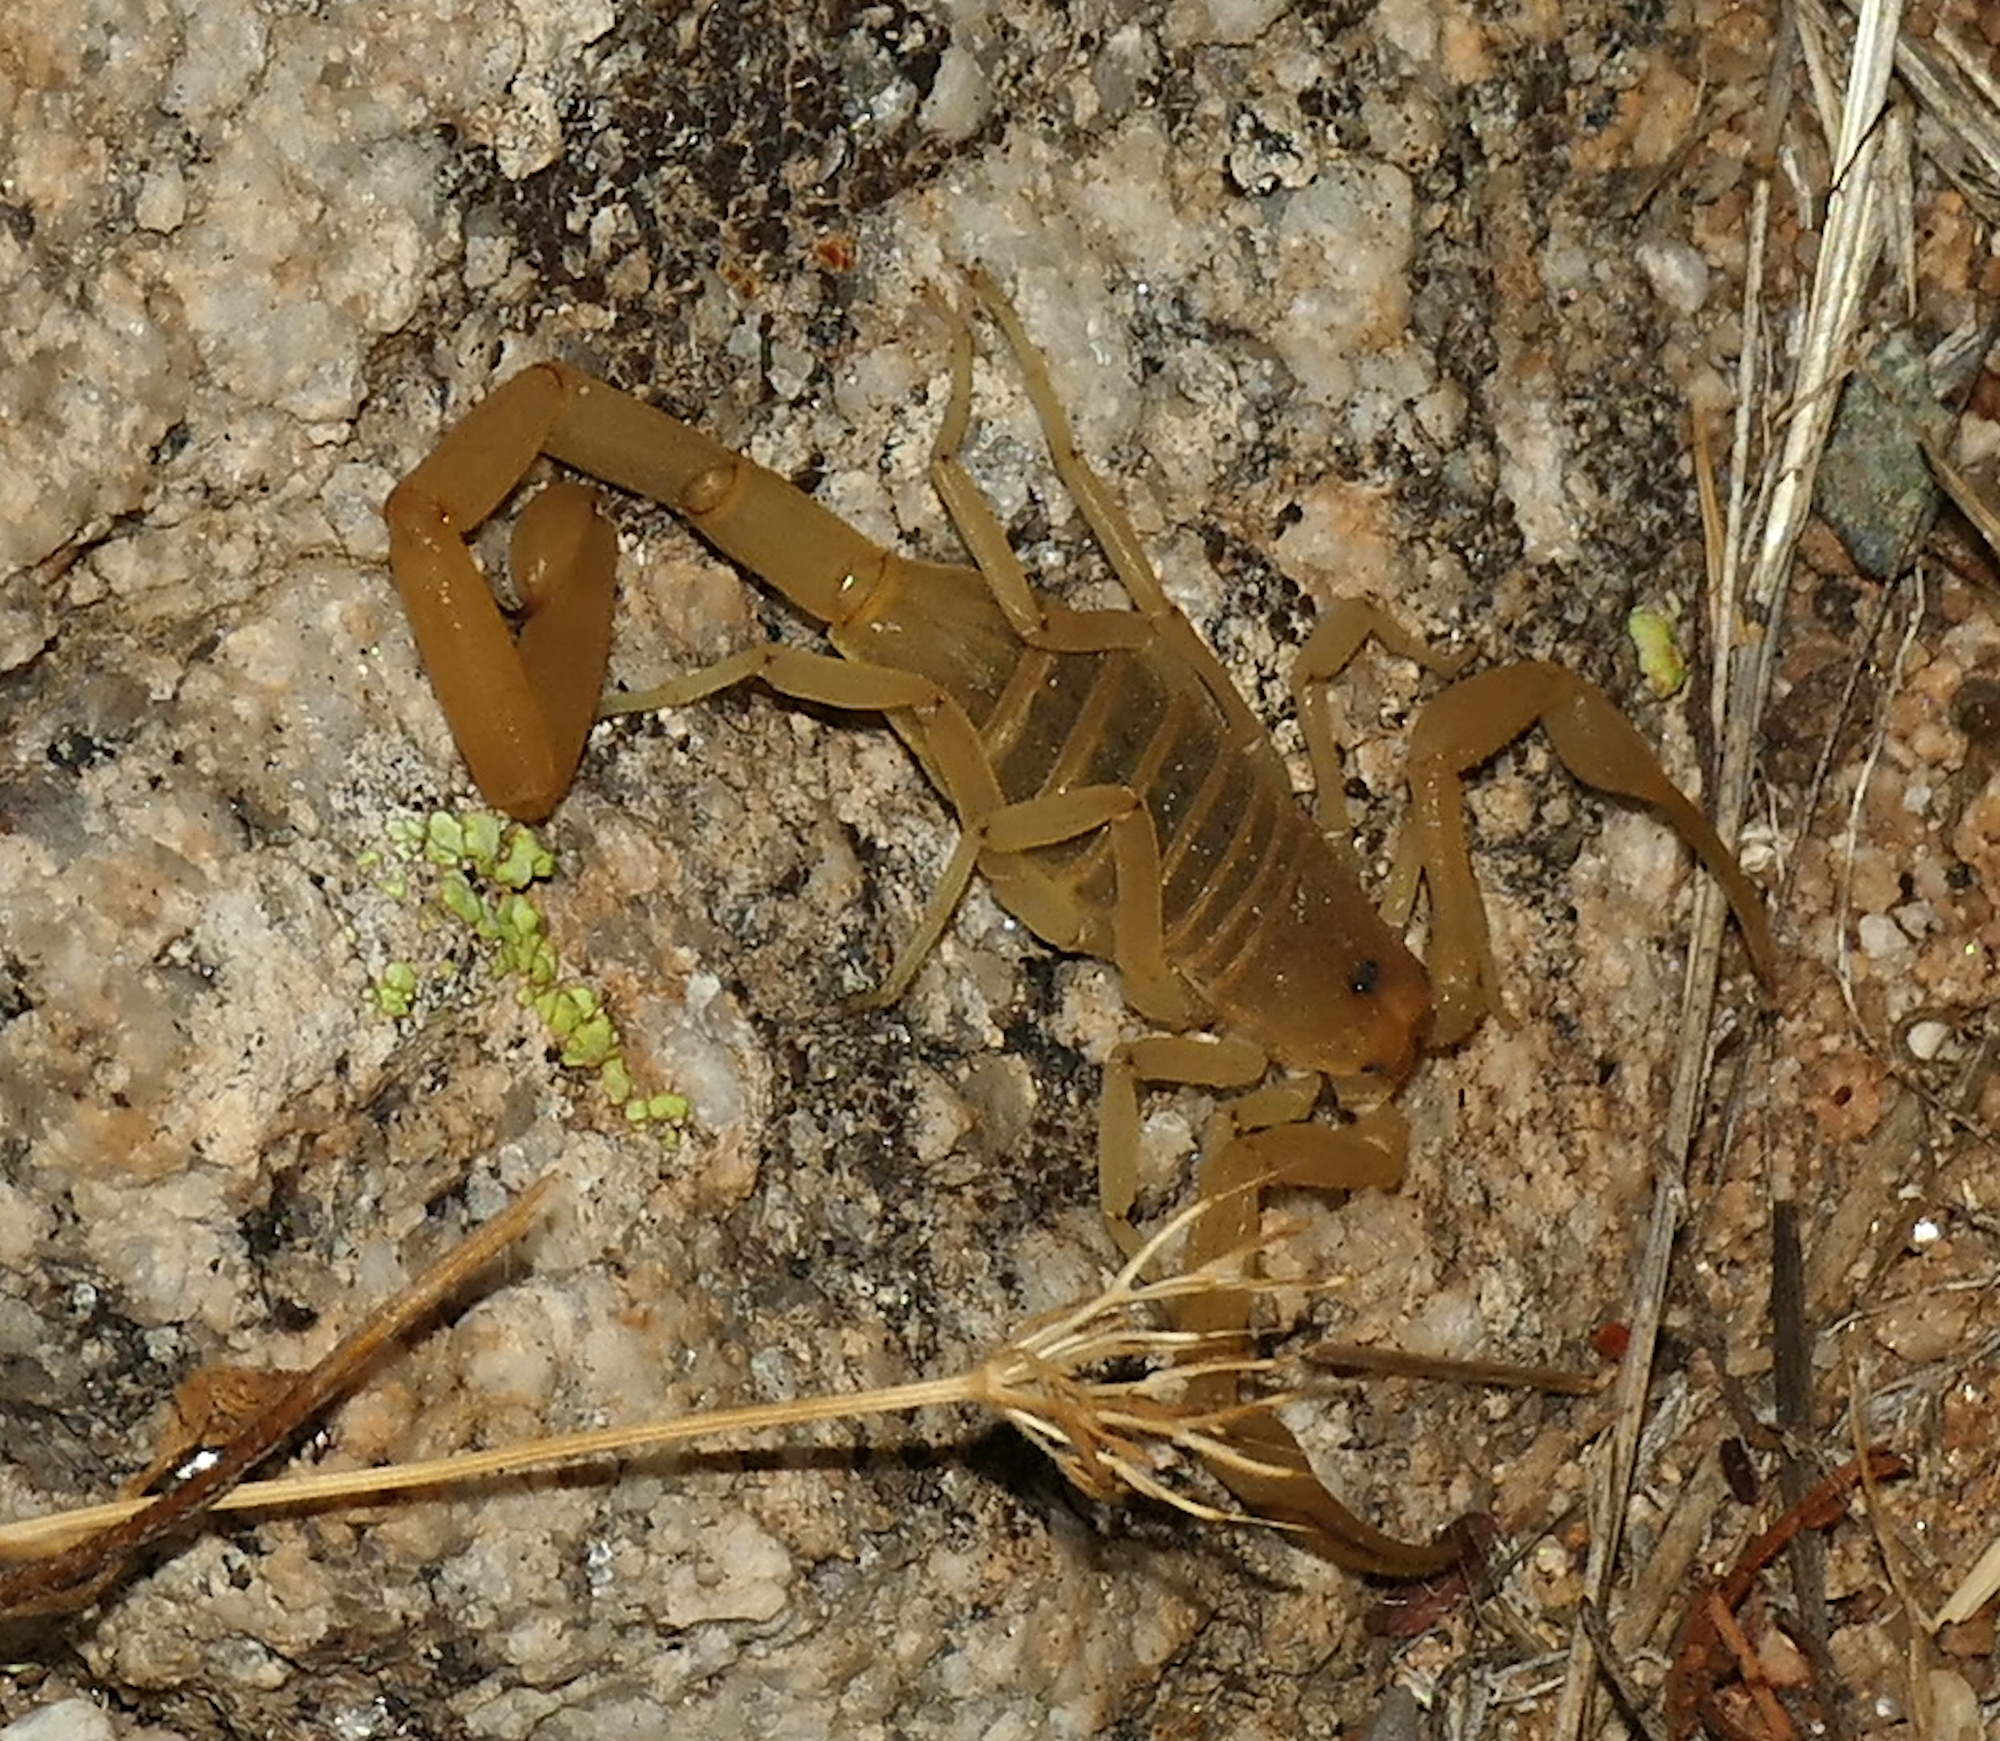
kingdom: Animalia
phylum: Arthropoda
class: Arachnida
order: Scorpiones
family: Buthidae
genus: Centruroides
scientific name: Centruroides sculpturatus
